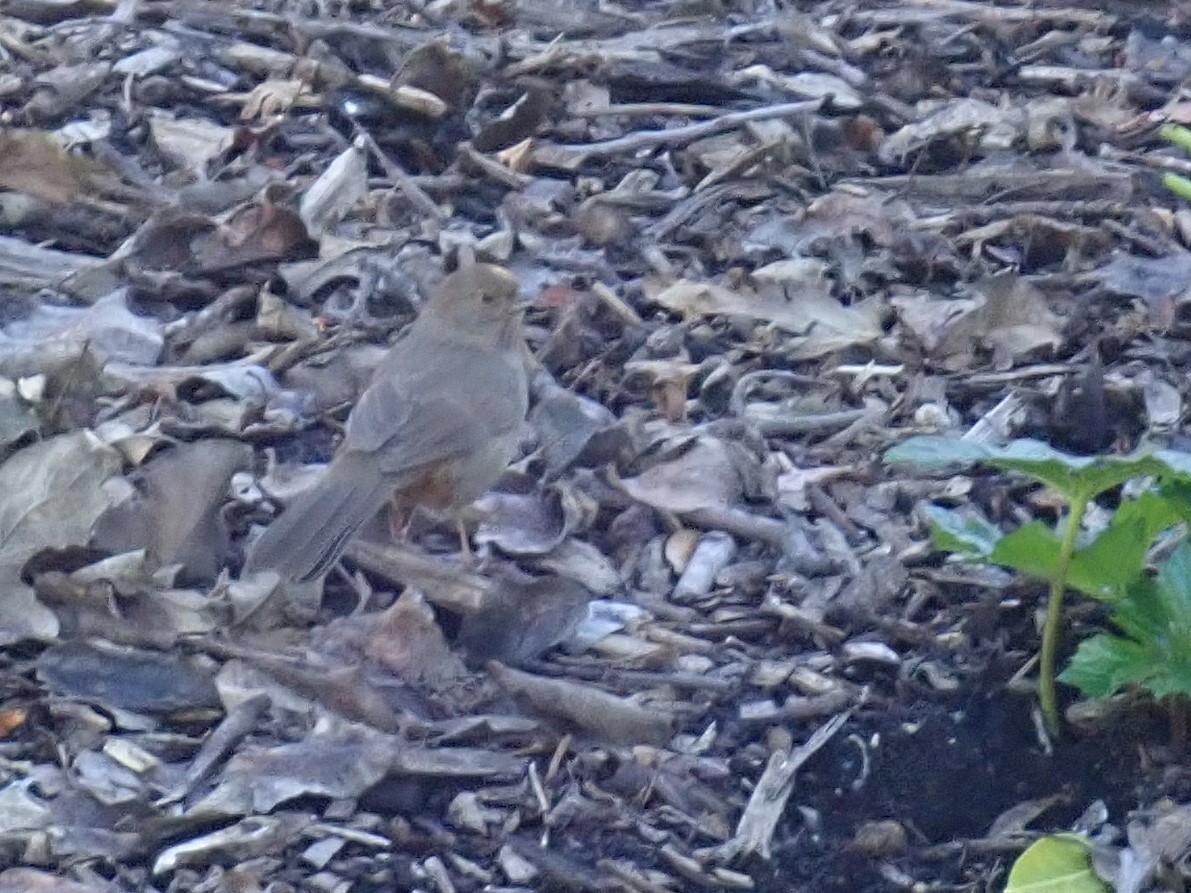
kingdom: Animalia
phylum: Chordata
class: Aves
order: Passeriformes
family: Passerellidae
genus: Melozone
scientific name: Melozone crissalis
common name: California towhee
